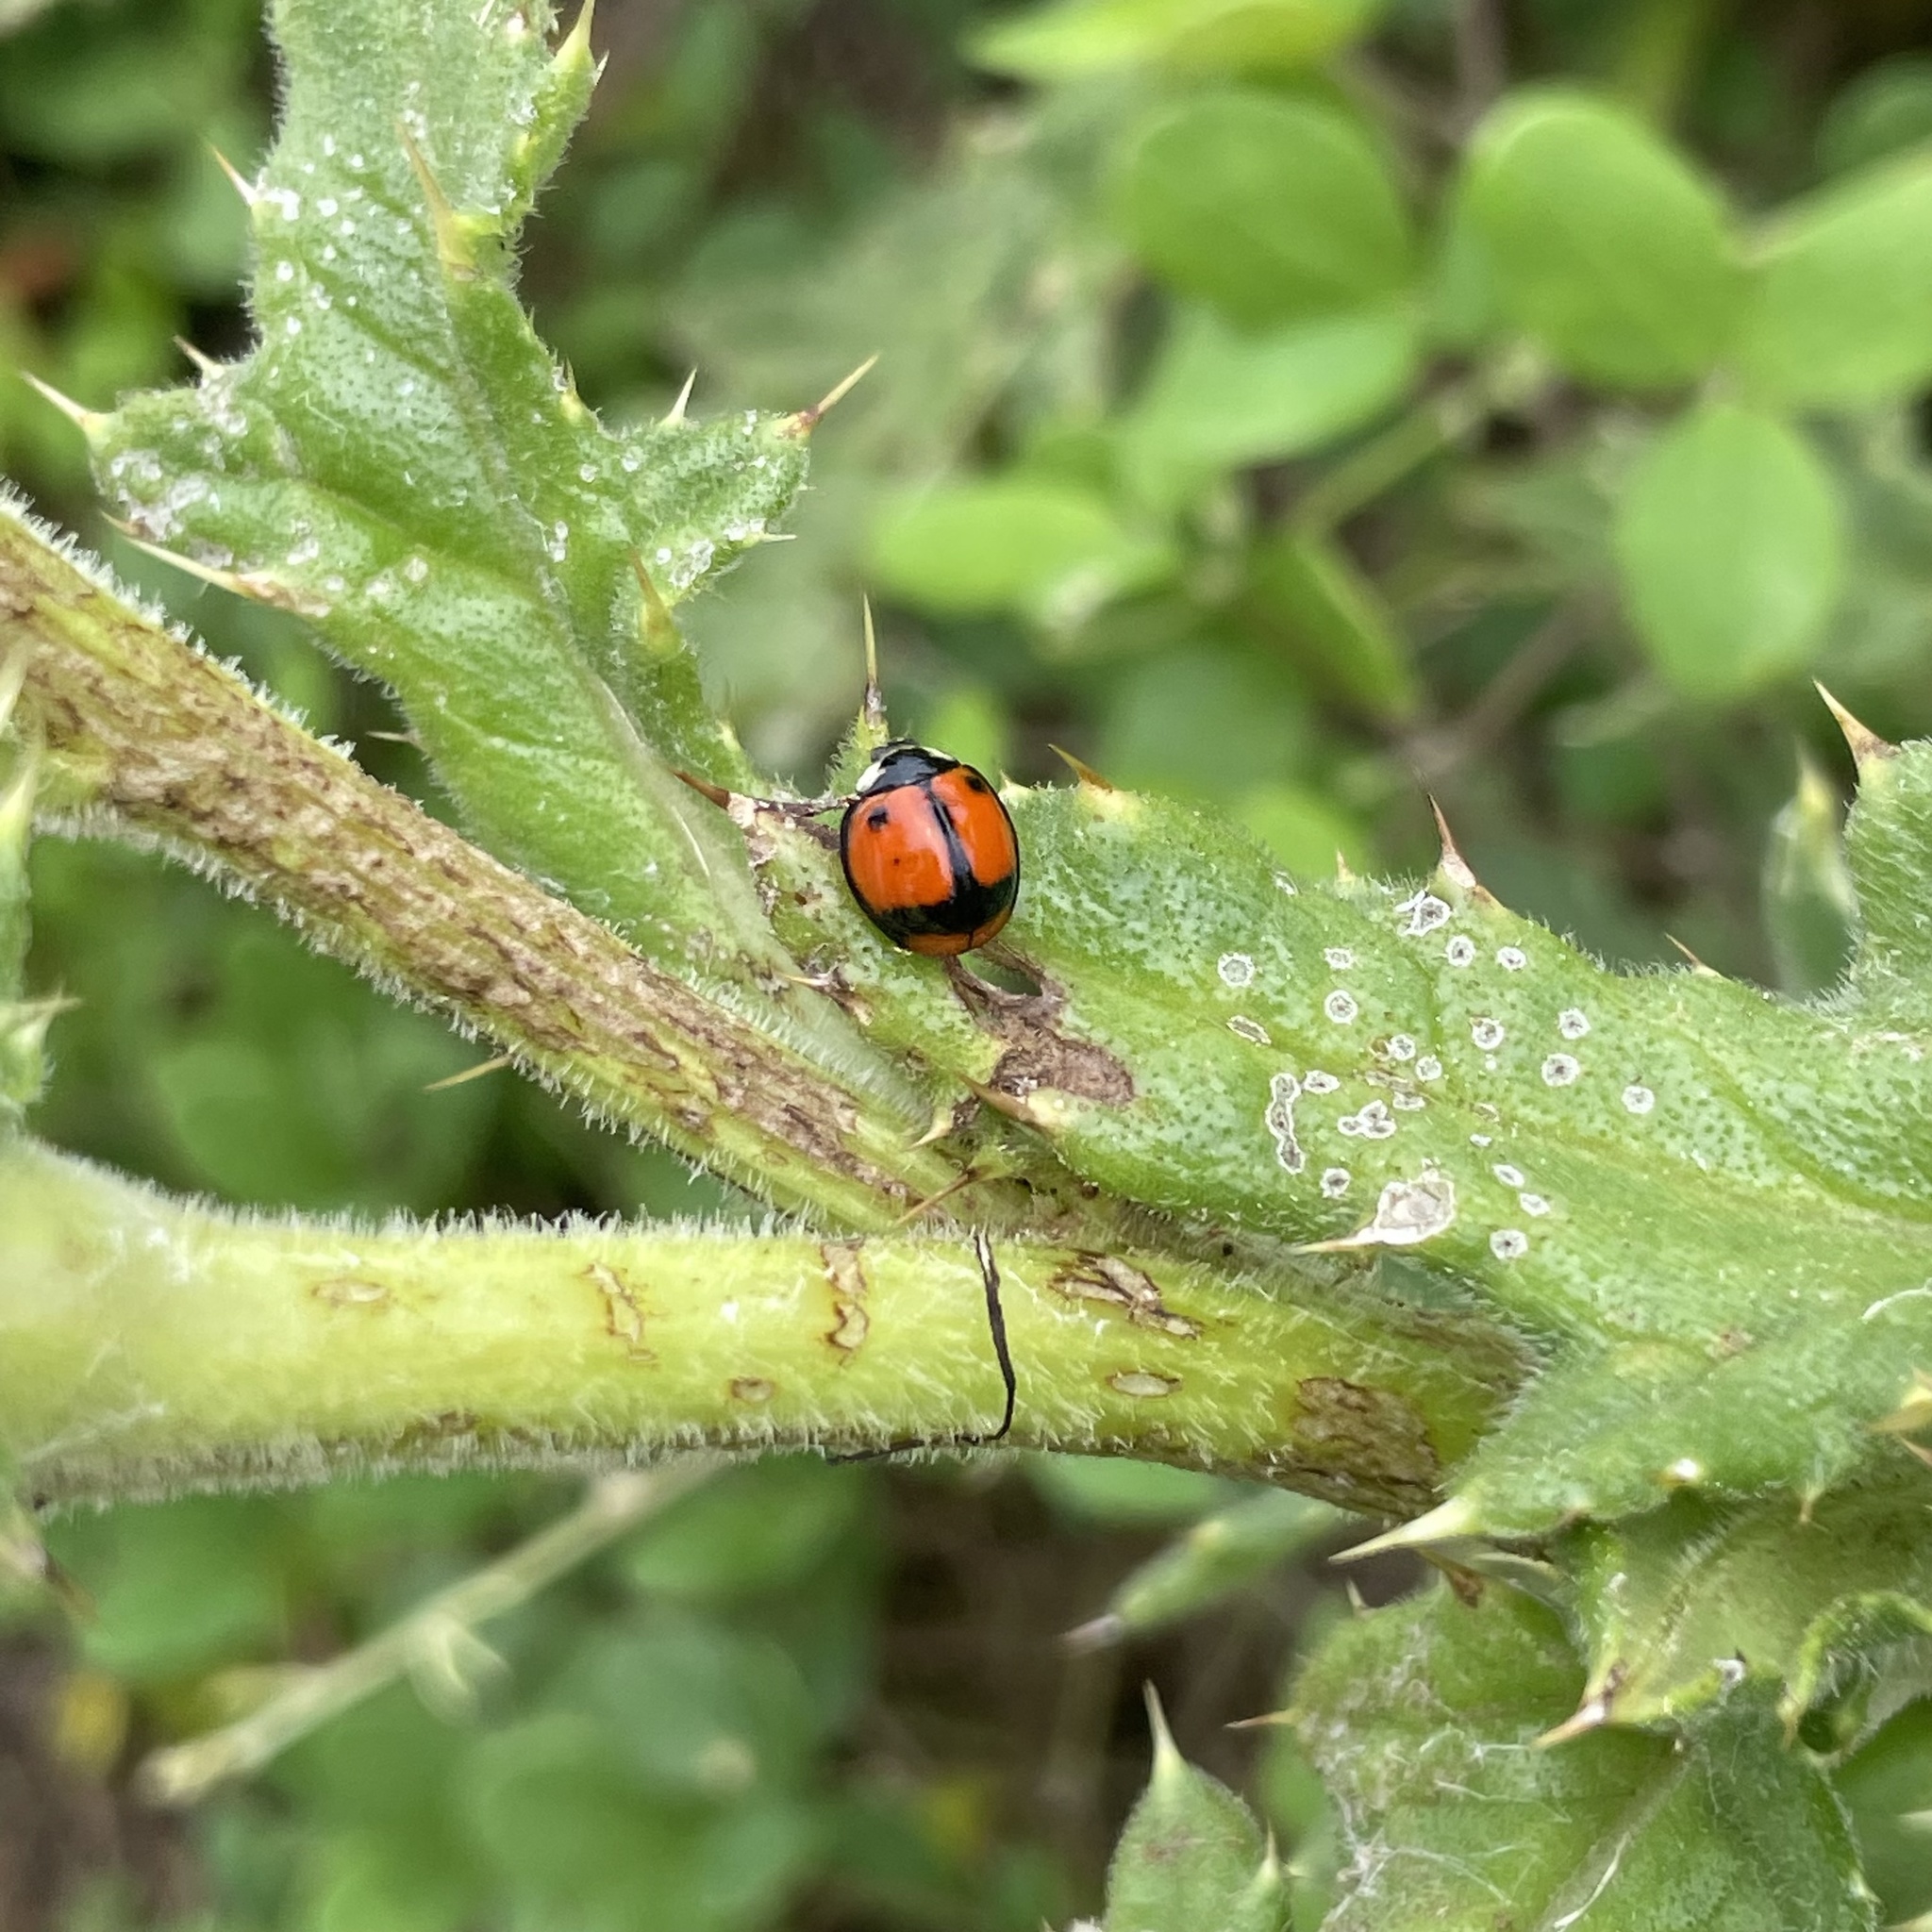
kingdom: Animalia
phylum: Arthropoda
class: Insecta
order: Coleoptera
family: Coccinellidae
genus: Coelophora
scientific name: Coelophora biplagiata
